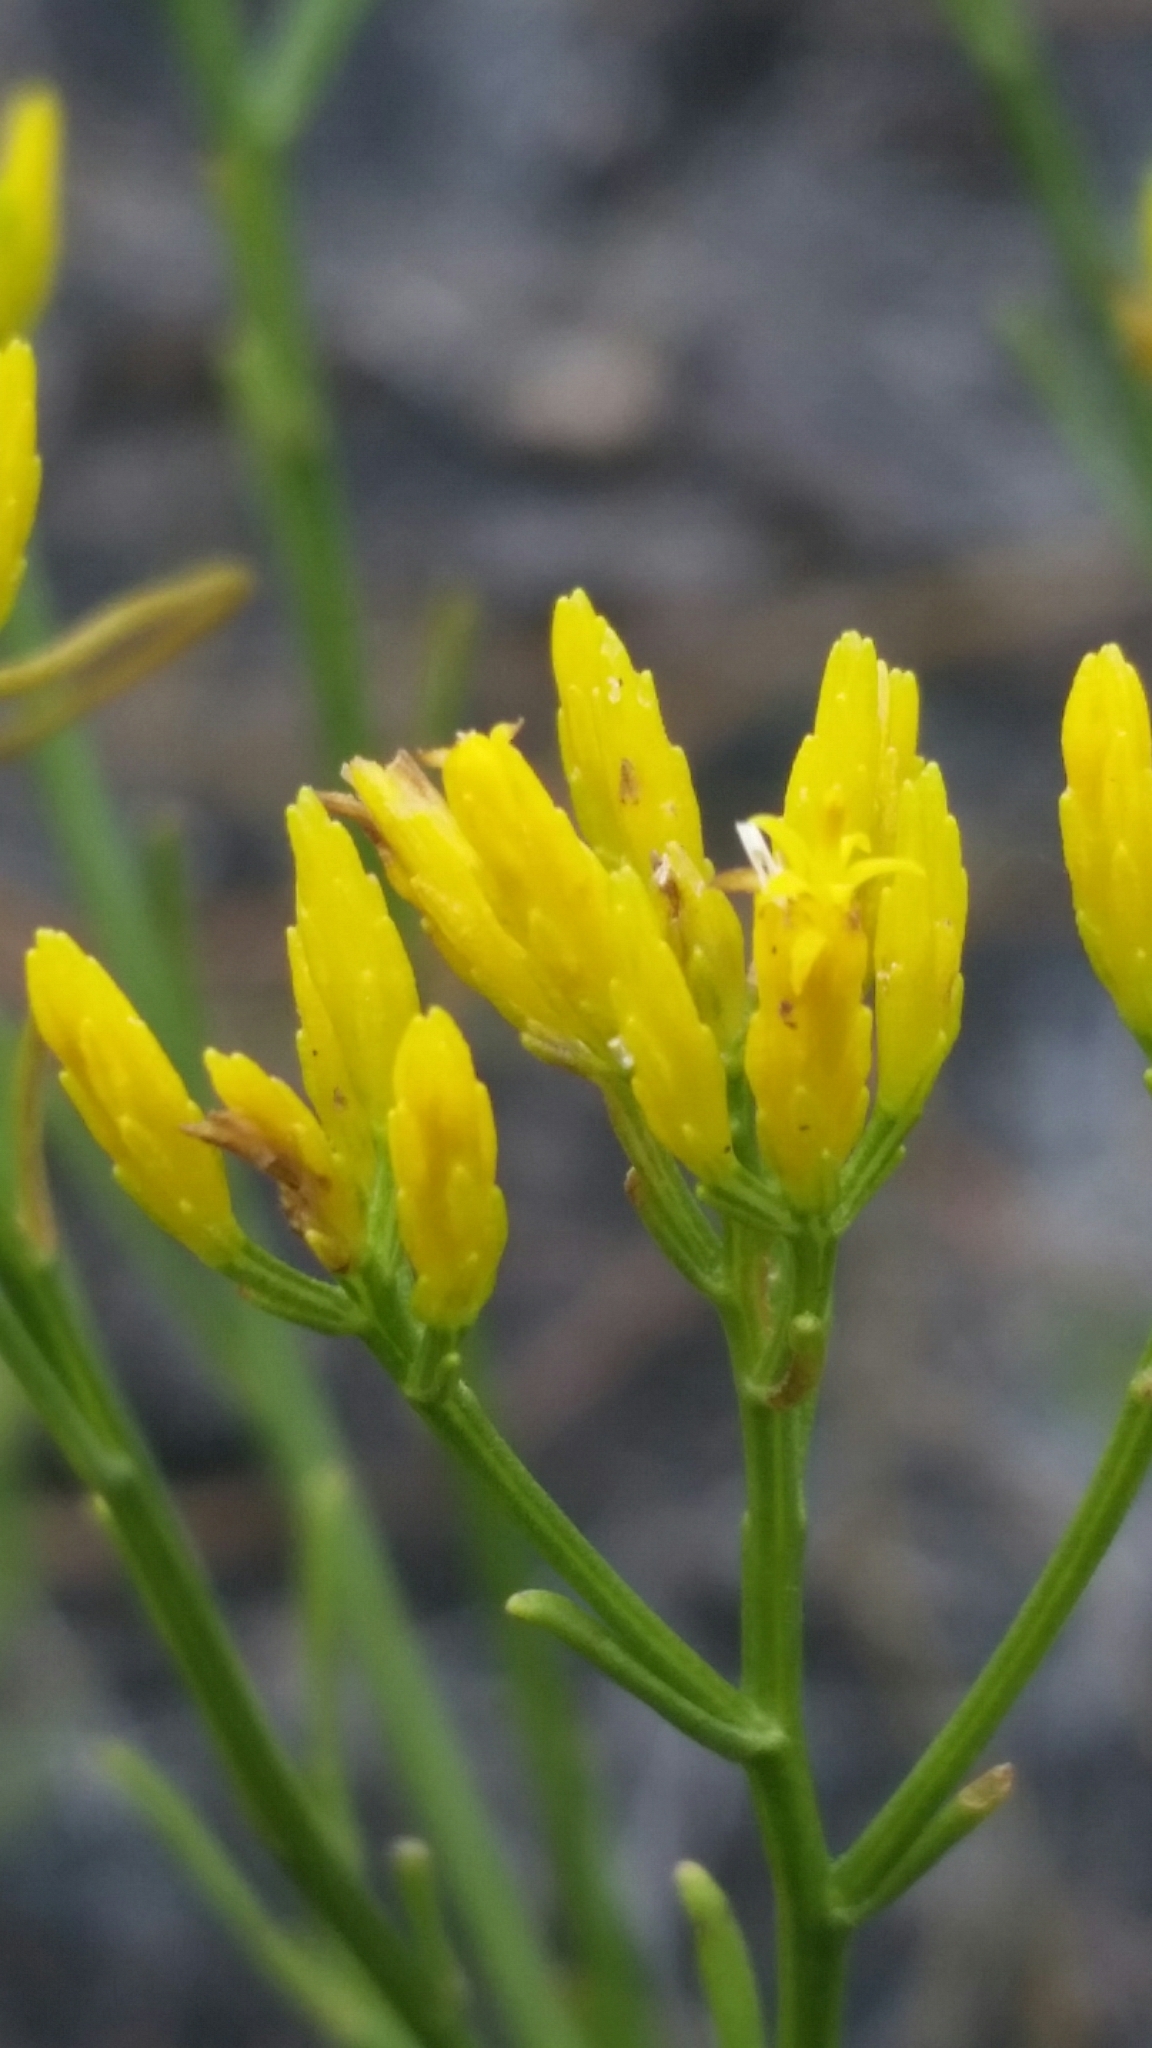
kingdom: Plantae
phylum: Tracheophyta
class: Magnoliopsida
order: Asterales
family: Asteraceae
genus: Bigelowia
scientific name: Bigelowia australis
